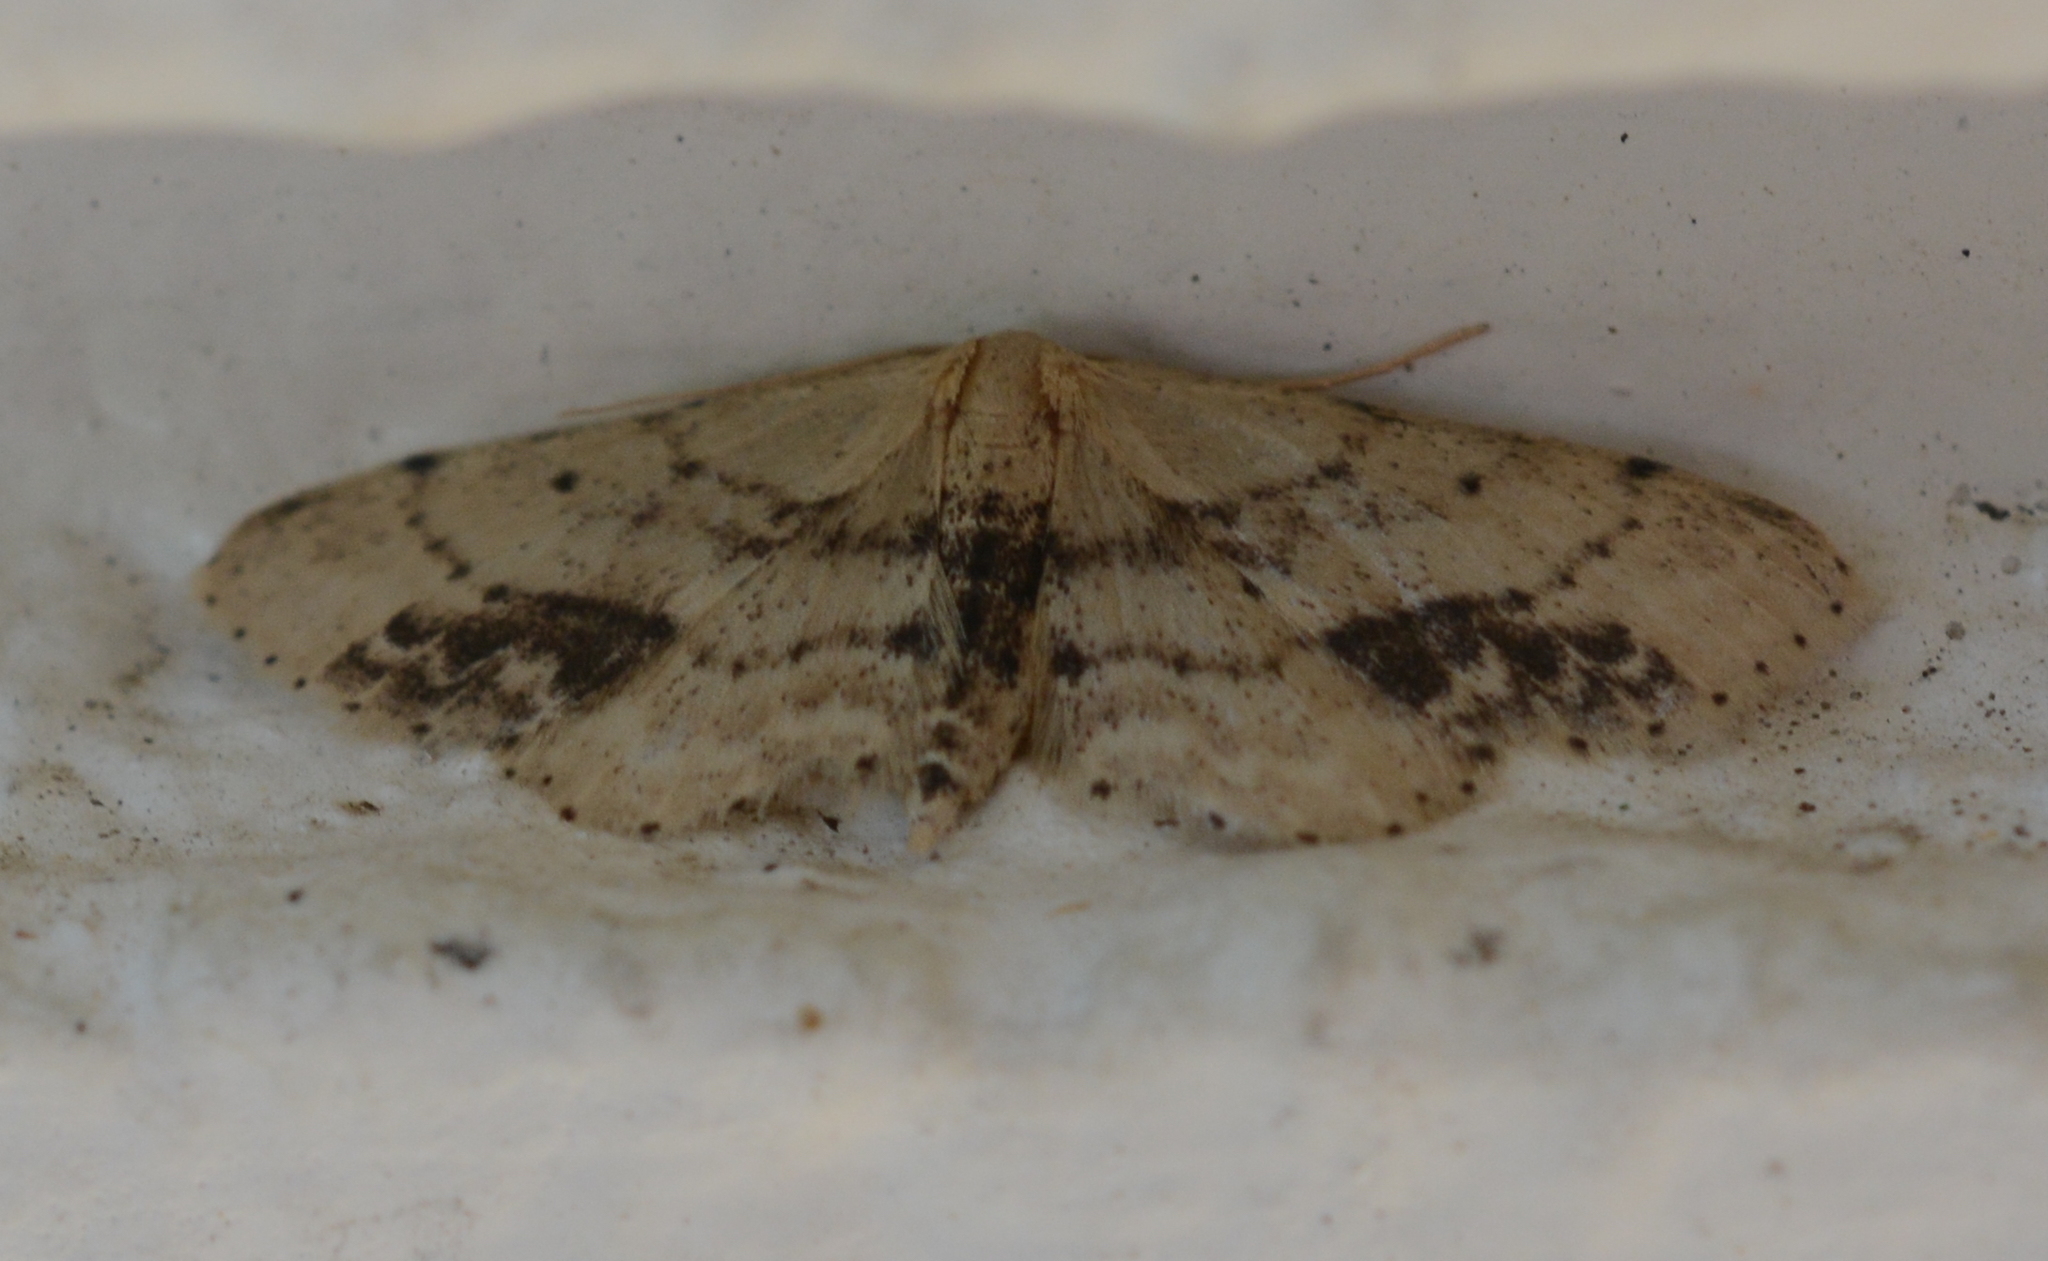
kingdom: Animalia
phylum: Arthropoda
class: Insecta
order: Lepidoptera
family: Geometridae
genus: Idaea
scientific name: Idaea dimidiata
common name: Single-dotted wave
